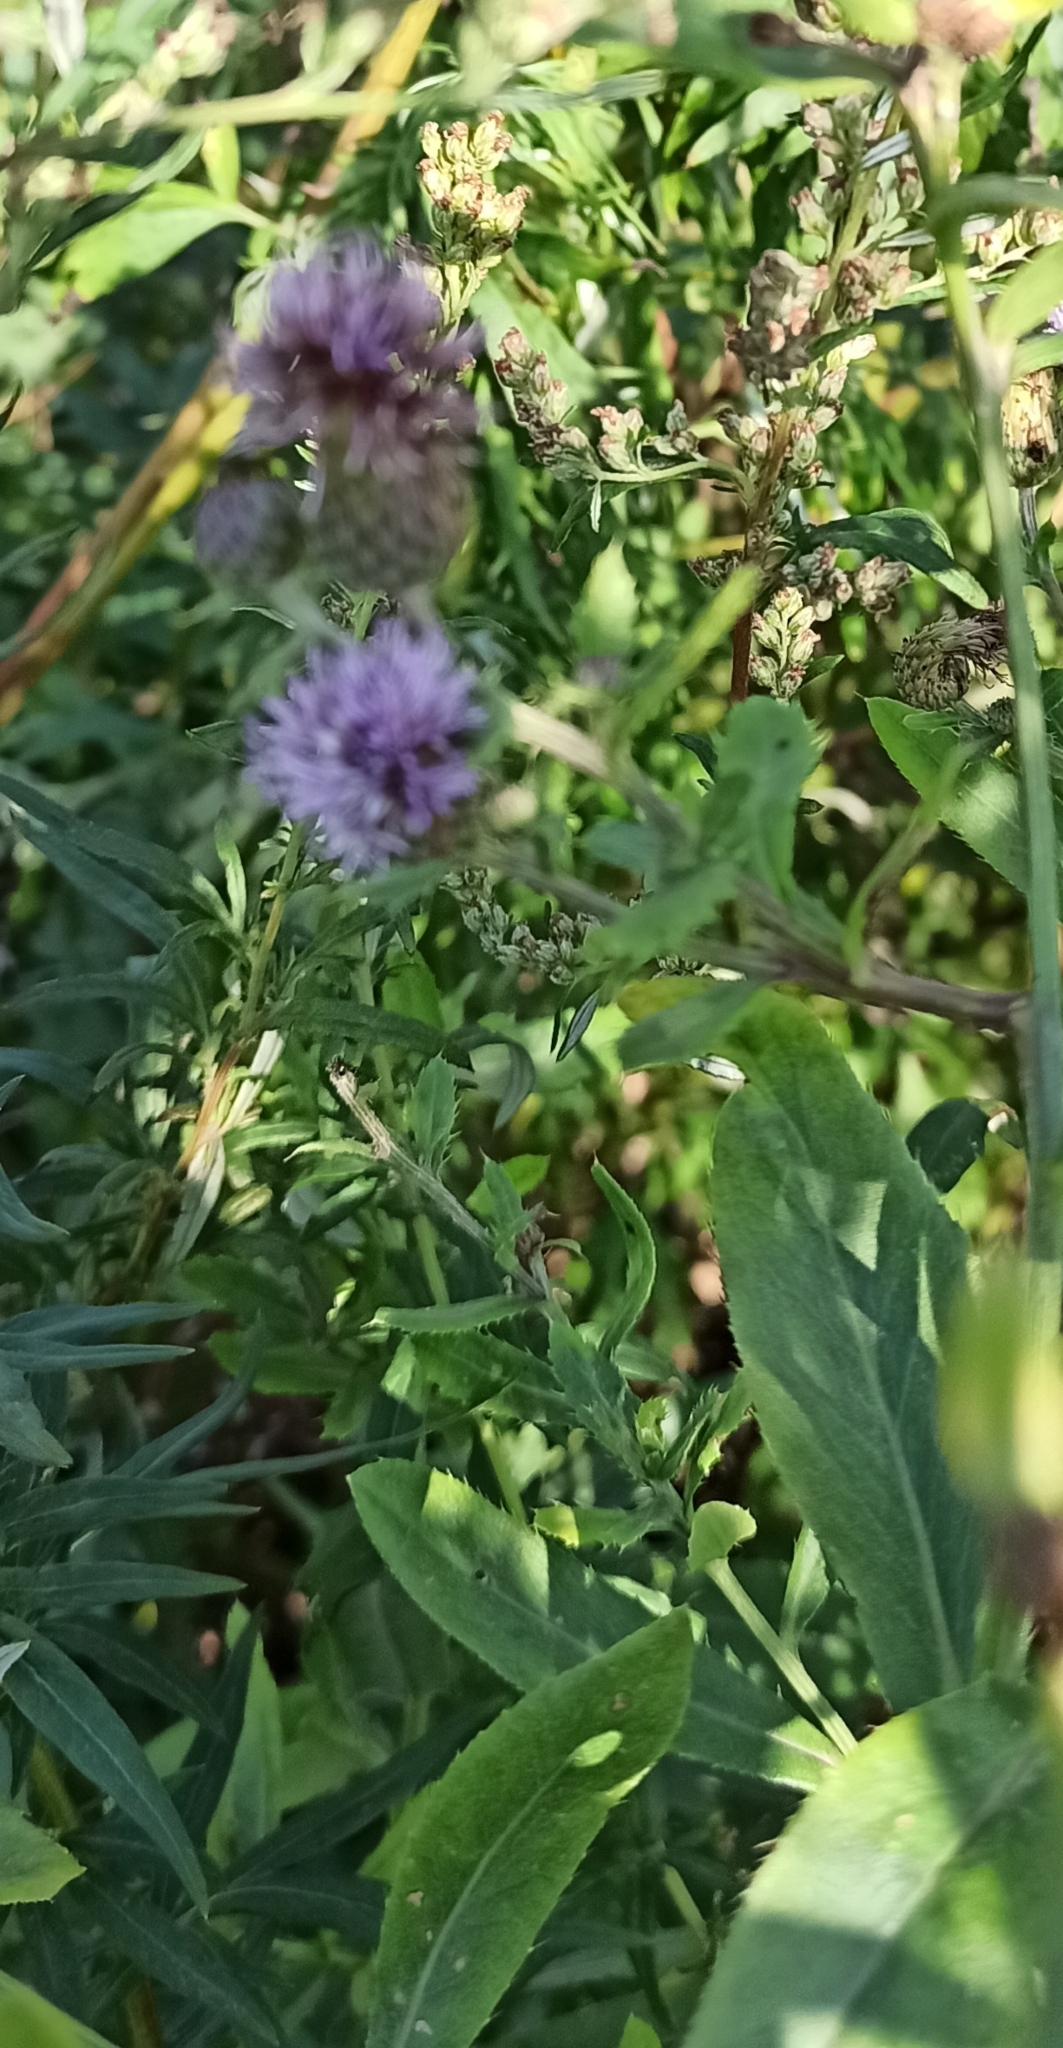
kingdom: Plantae
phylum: Tracheophyta
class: Magnoliopsida
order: Asterales
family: Asteraceae
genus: Cirsium
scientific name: Cirsium arvense
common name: Creeping thistle
